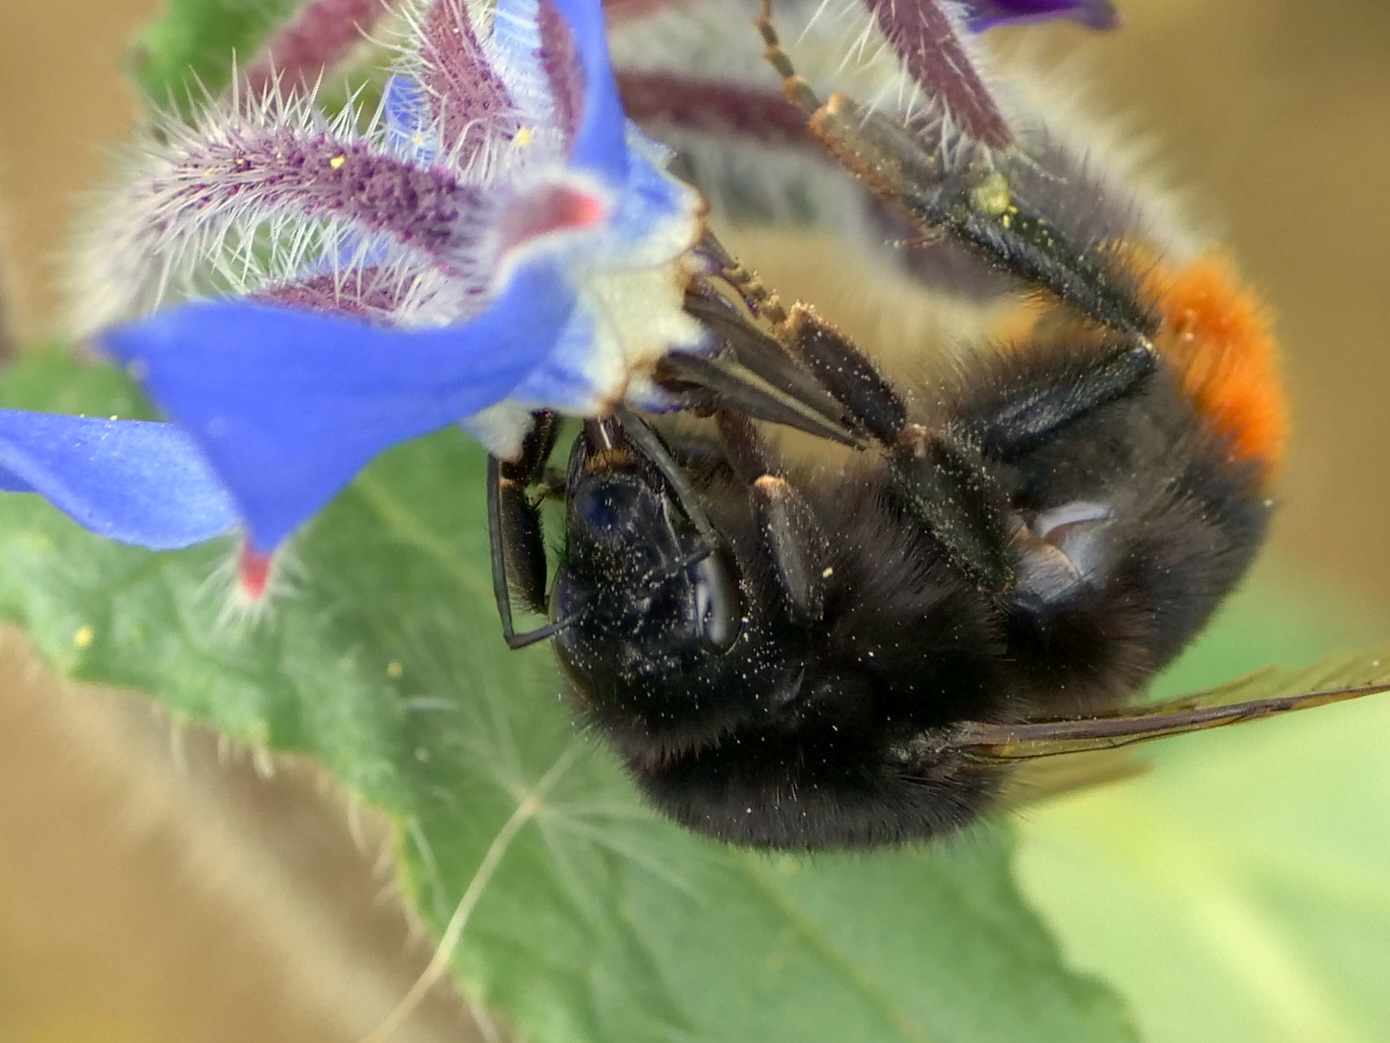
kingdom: Animalia
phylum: Arthropoda
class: Insecta
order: Hymenoptera
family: Apidae
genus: Bombus
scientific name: Bombus lapidarius
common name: Large red-tailed humble-bee
